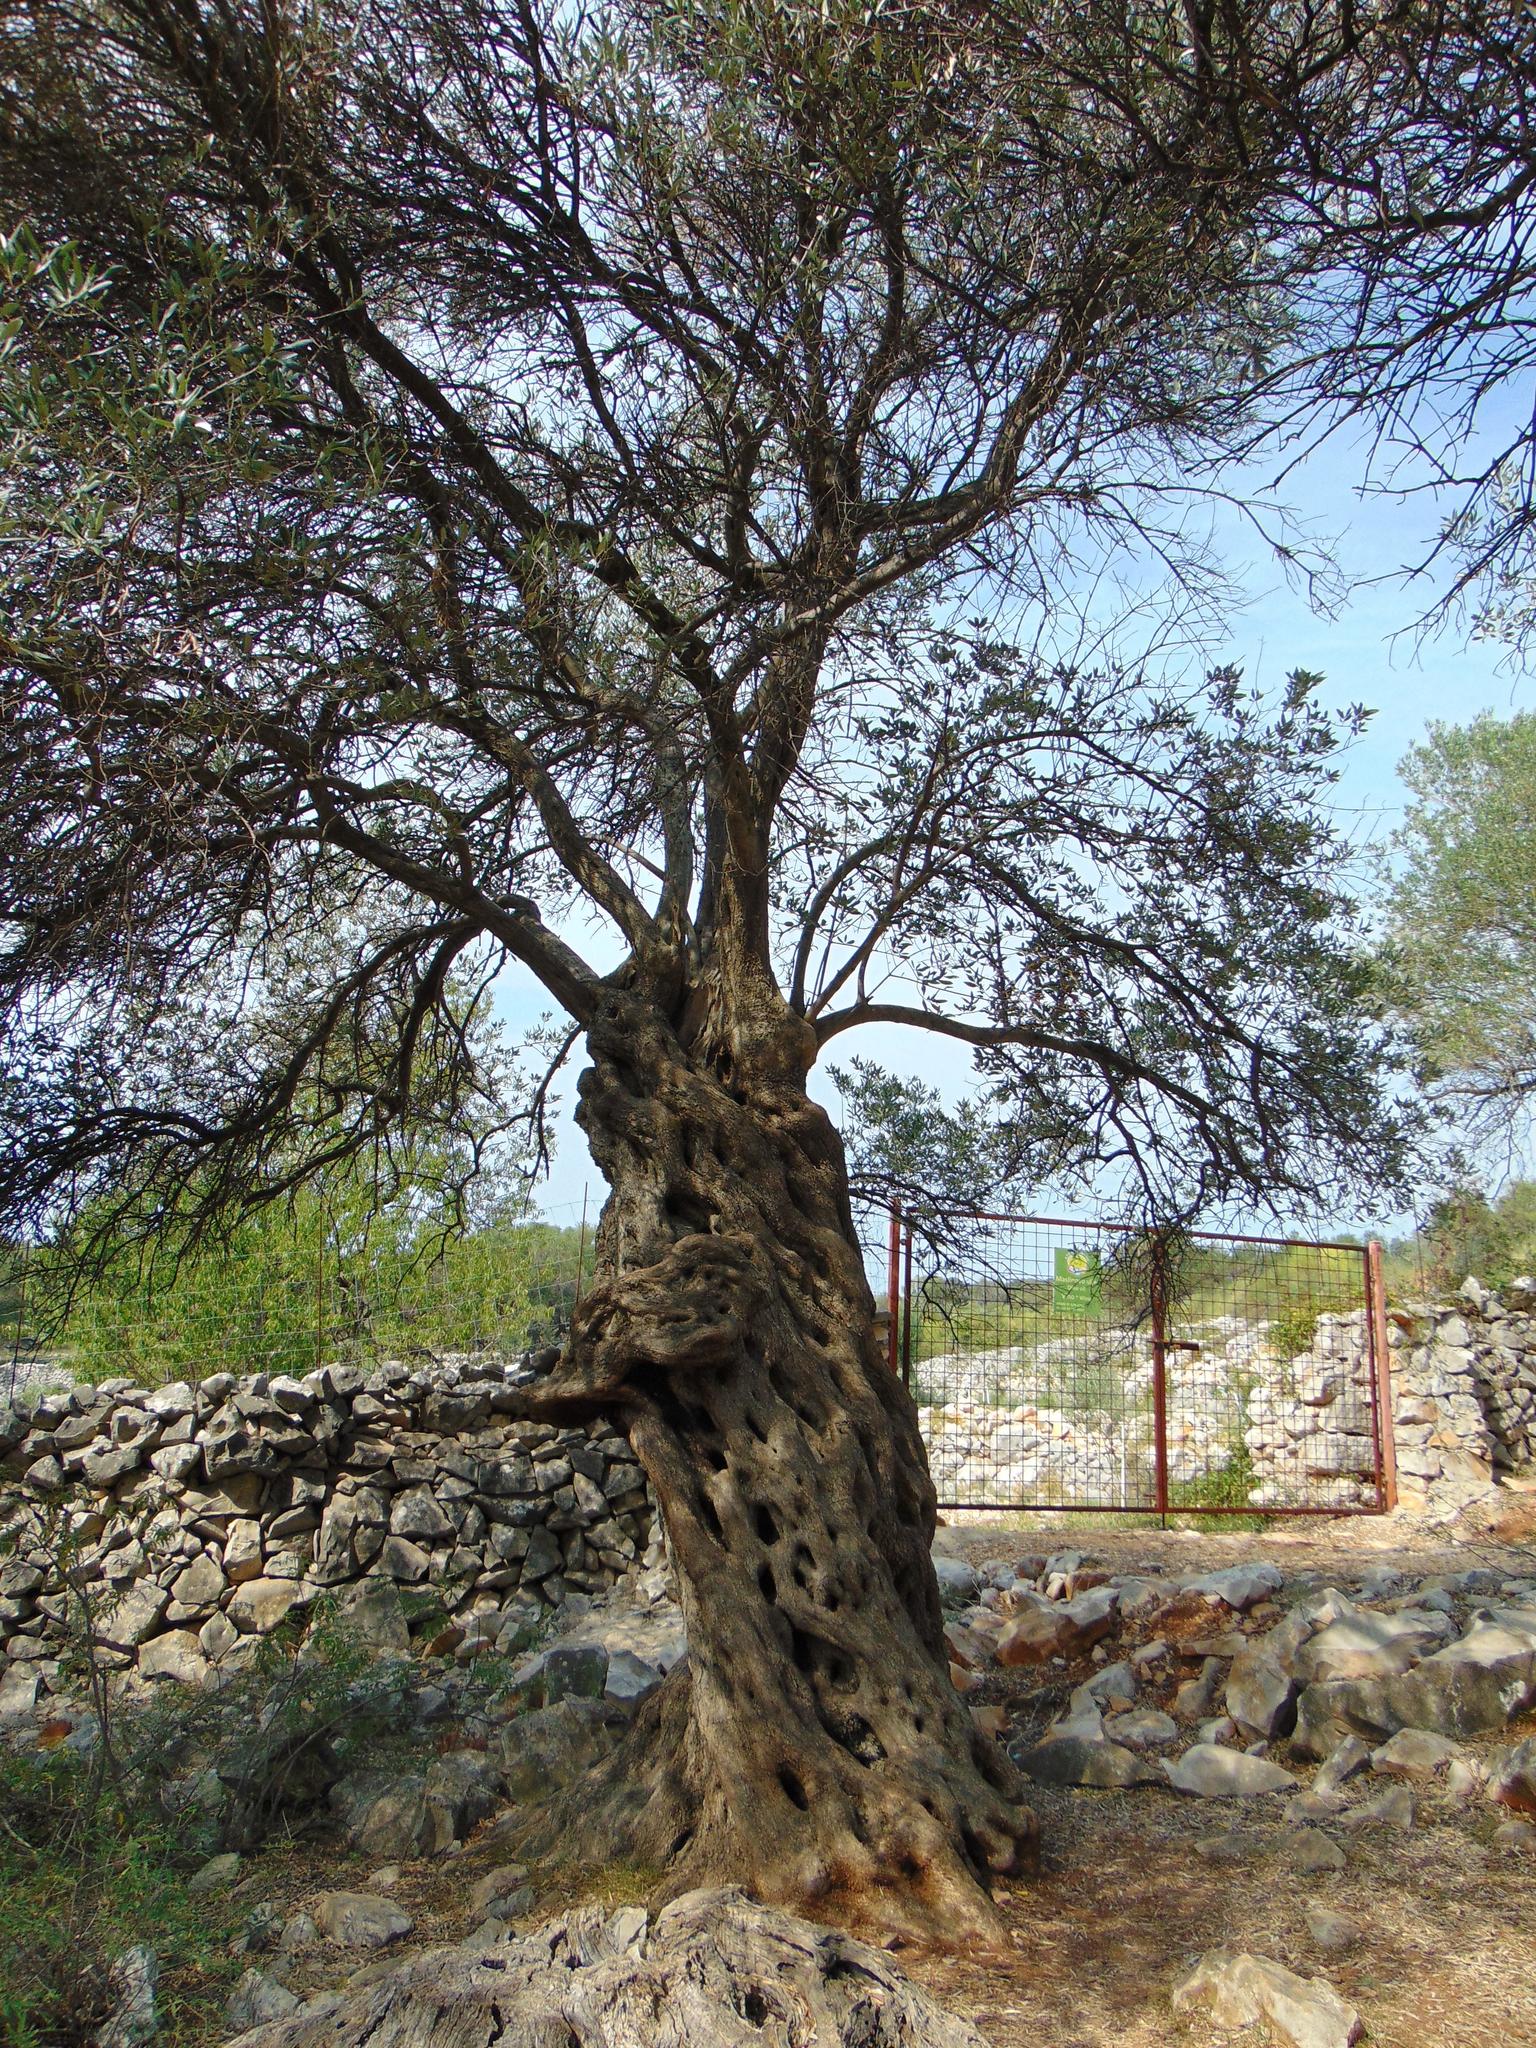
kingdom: Plantae
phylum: Tracheophyta
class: Magnoliopsida
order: Lamiales
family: Oleaceae
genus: Olea
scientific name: Olea europaea
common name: Olive
